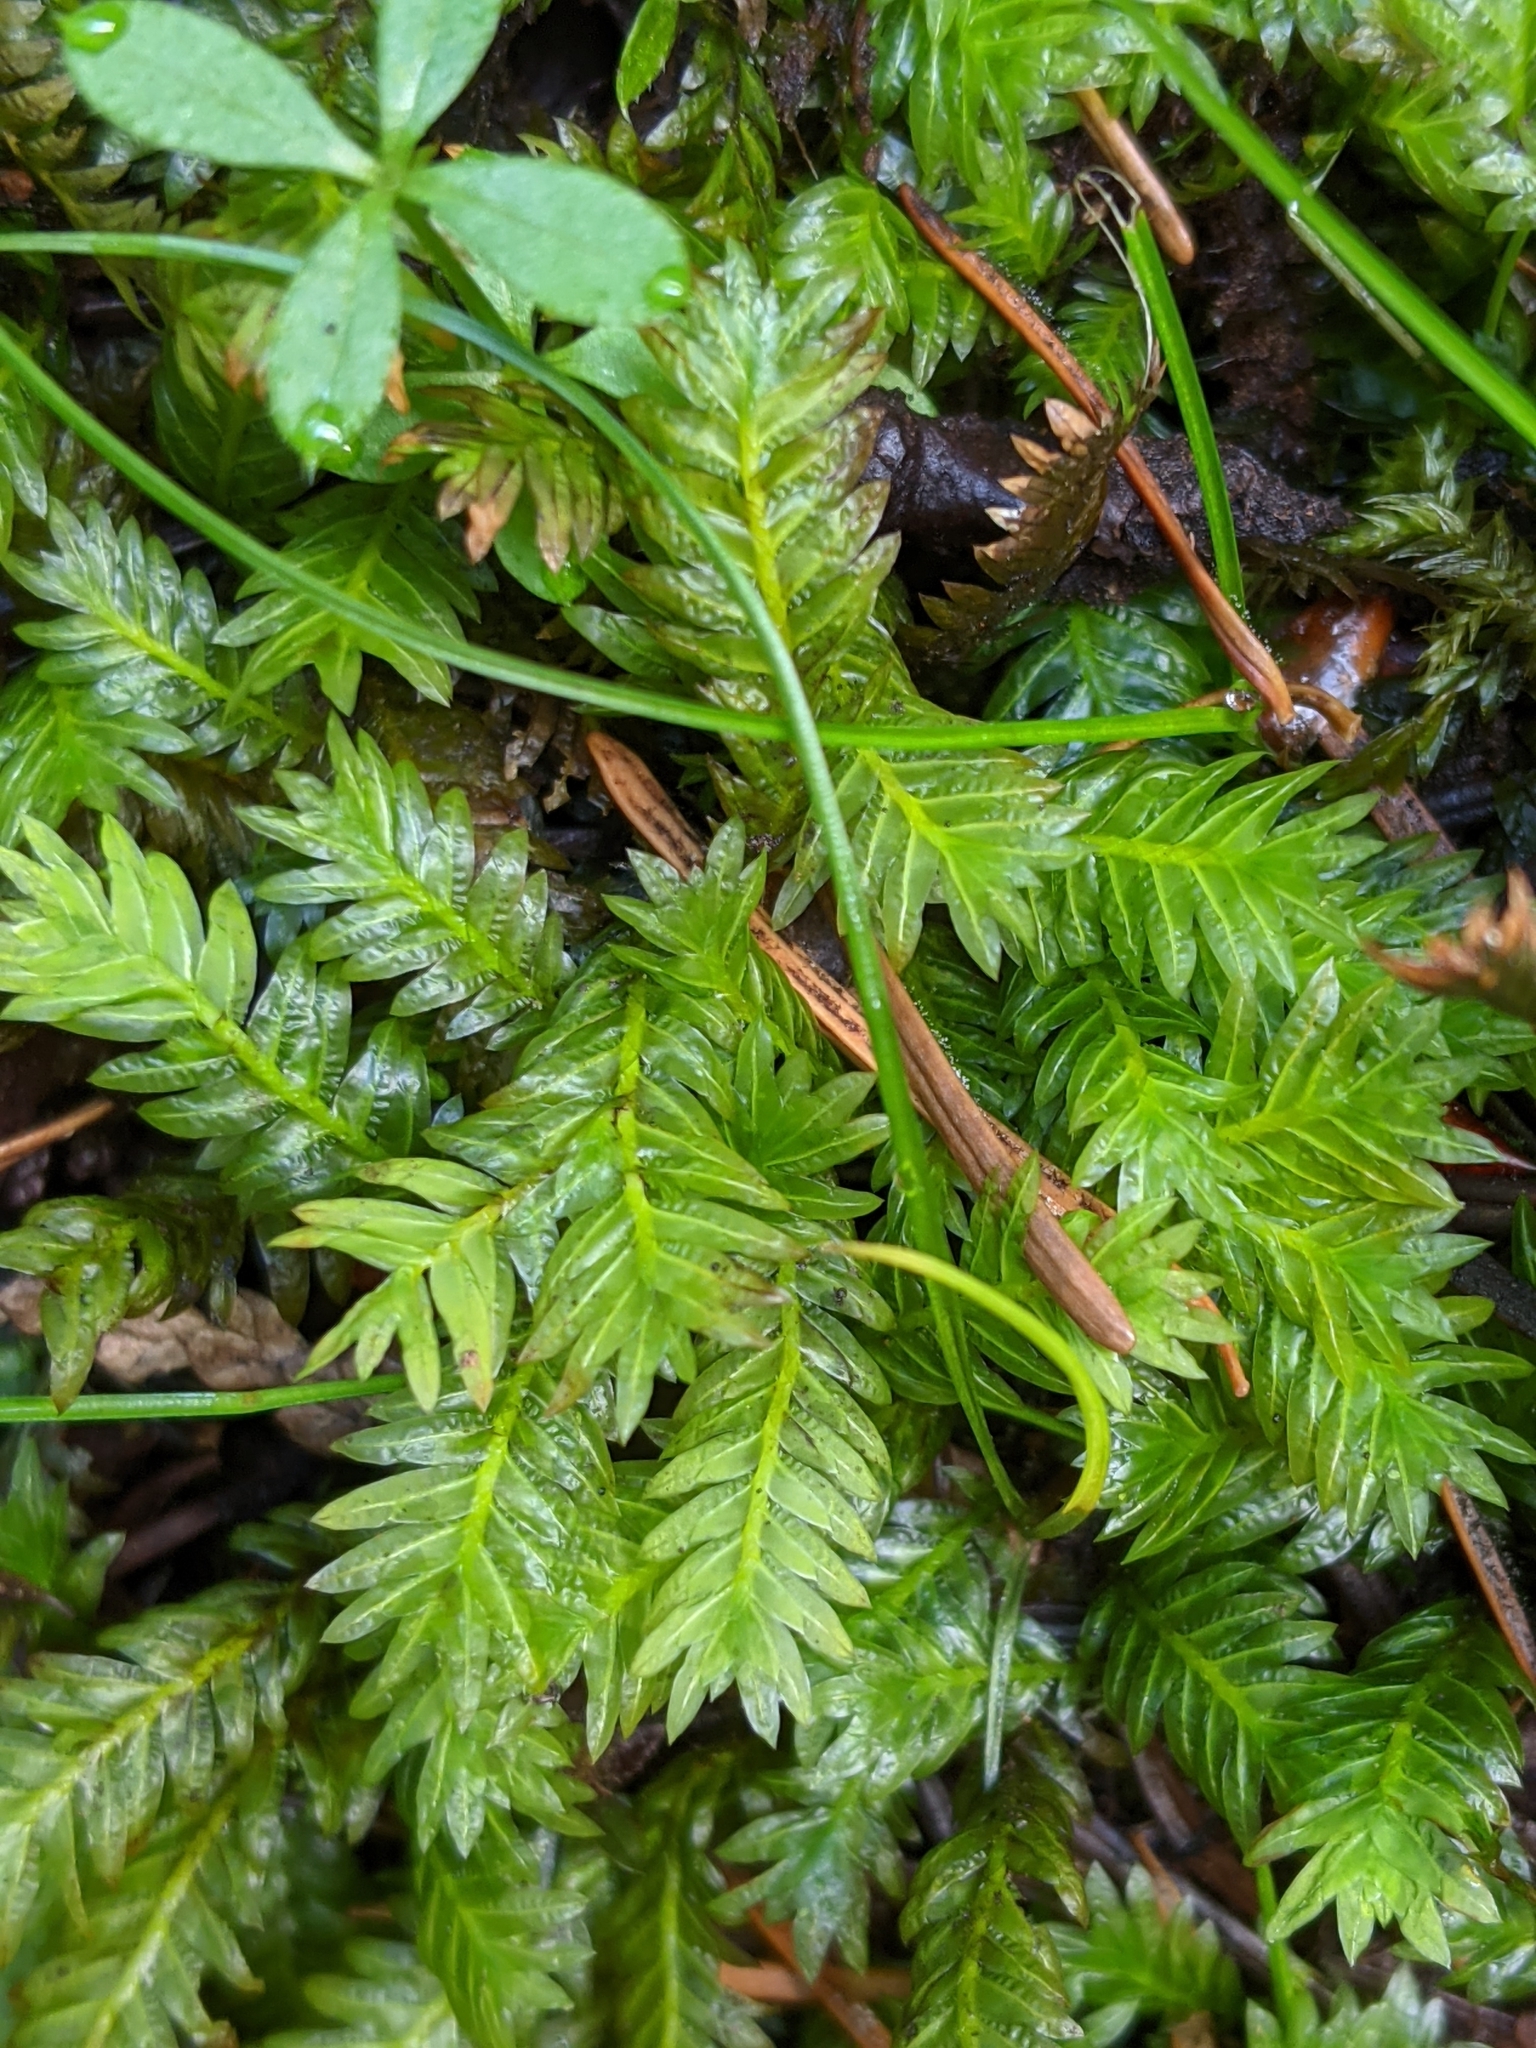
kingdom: Plantae
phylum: Bryophyta
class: Bryopsida
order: Dicranales
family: Fissidentaceae
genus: Fissidens
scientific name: Fissidens adianthoides
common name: Maidenhair pocket moss
